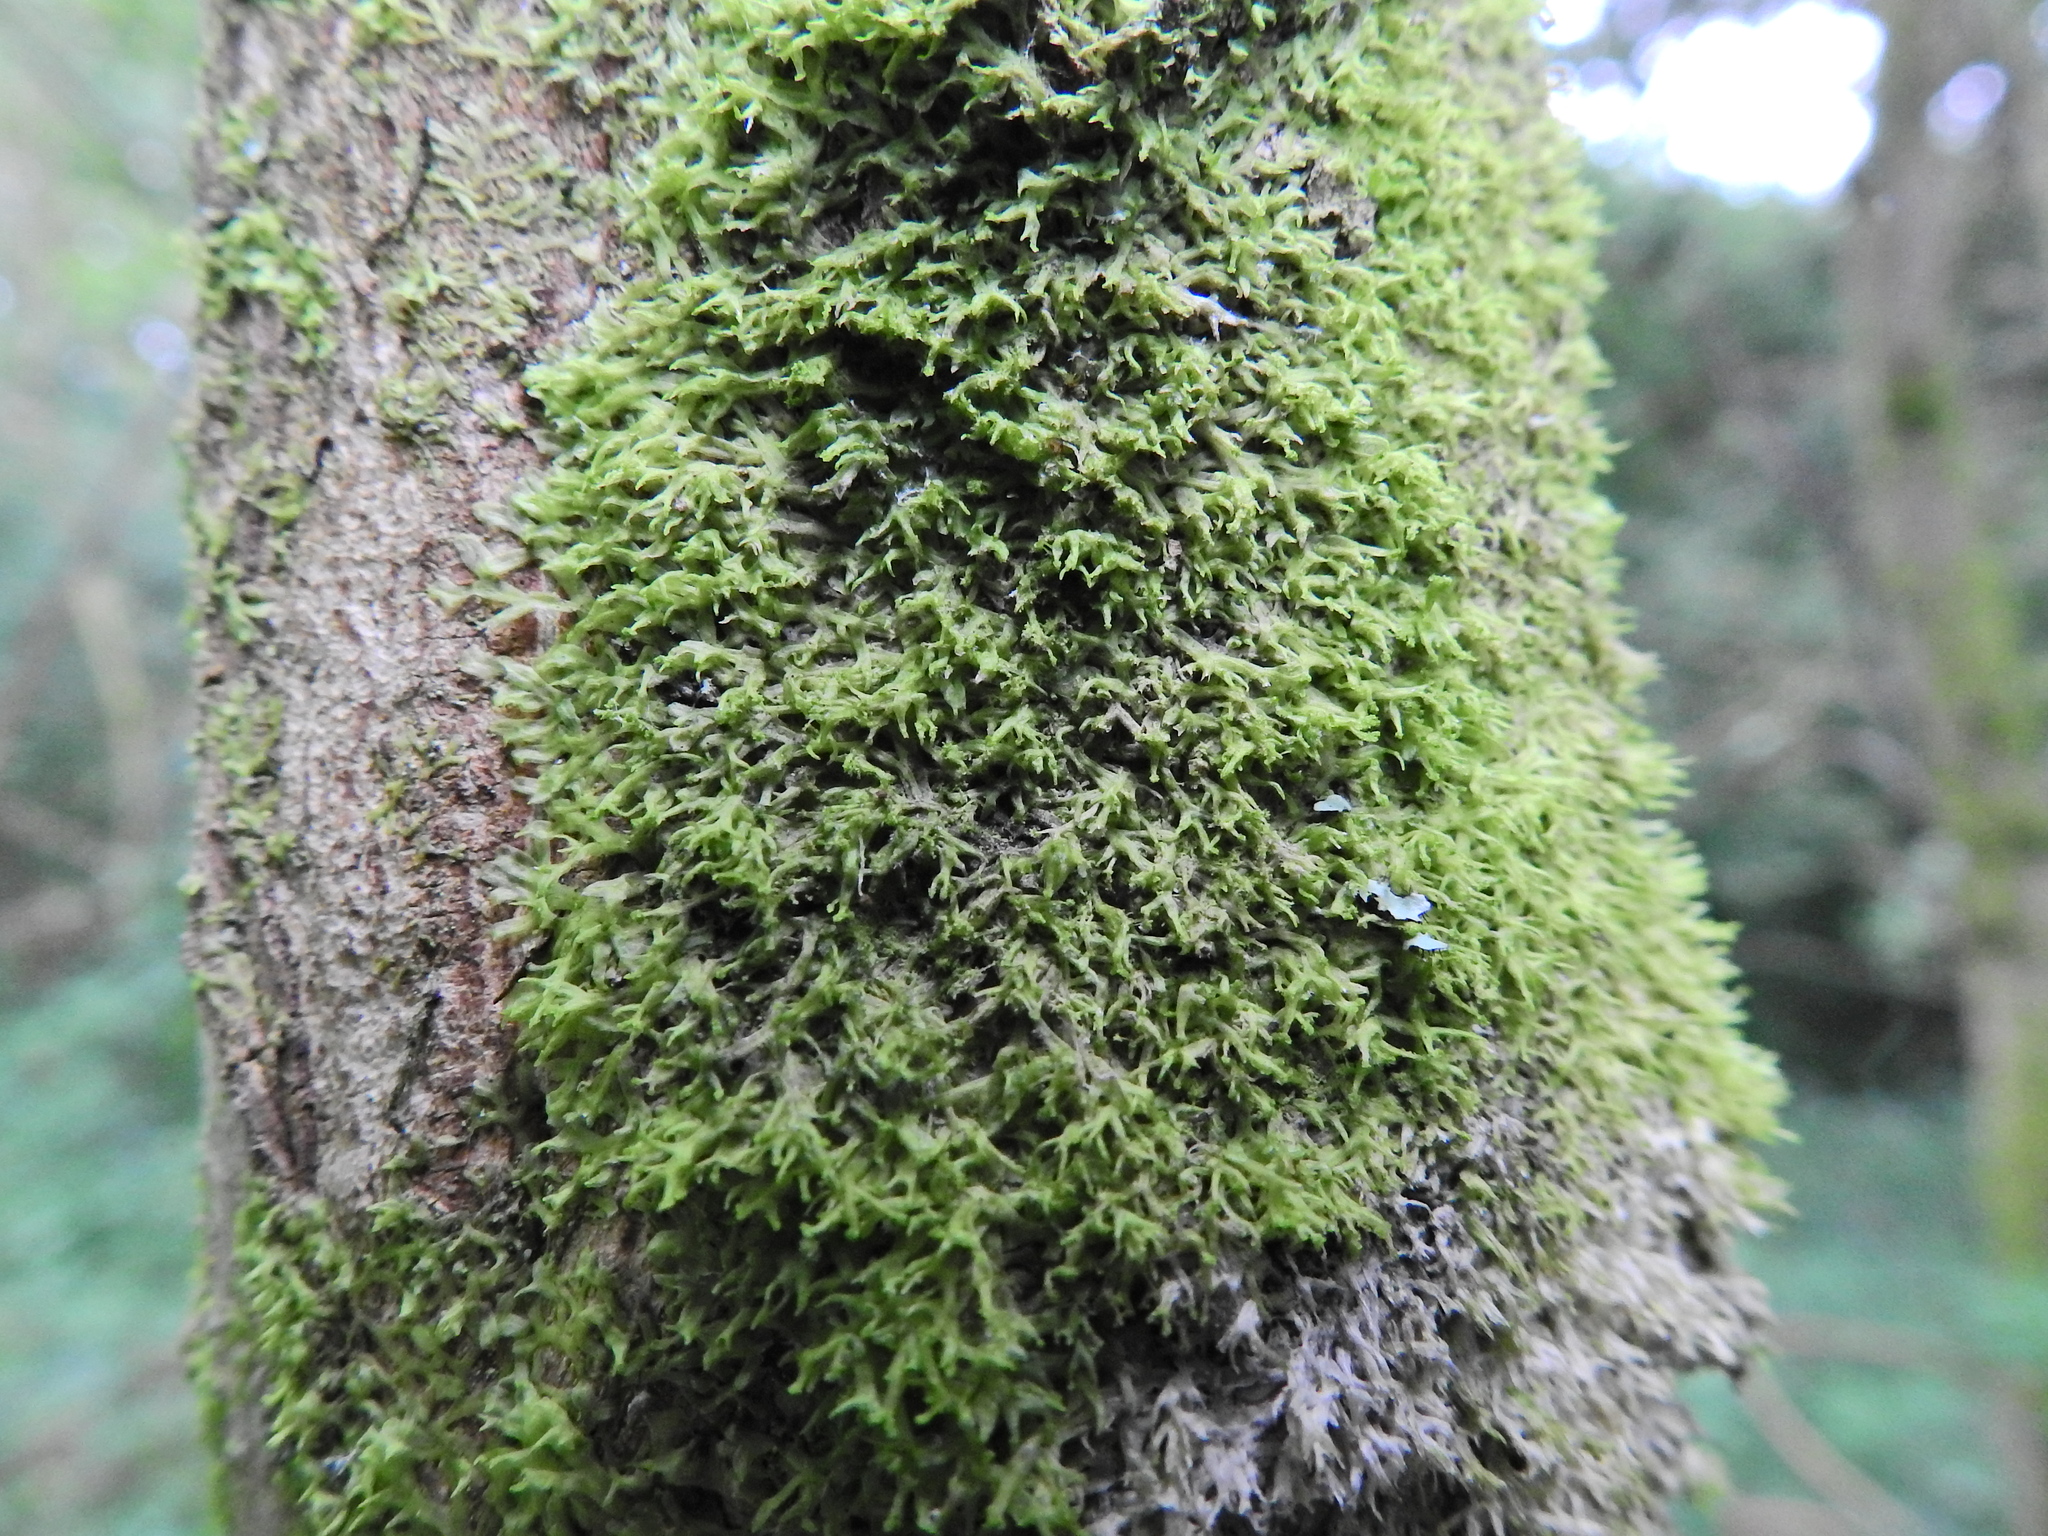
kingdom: Plantae
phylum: Marchantiophyta
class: Jungermanniopsida
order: Metzgeriales
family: Metzgeriaceae
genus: Metzgeria
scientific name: Metzgeria violacea
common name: Blueish veilwort
